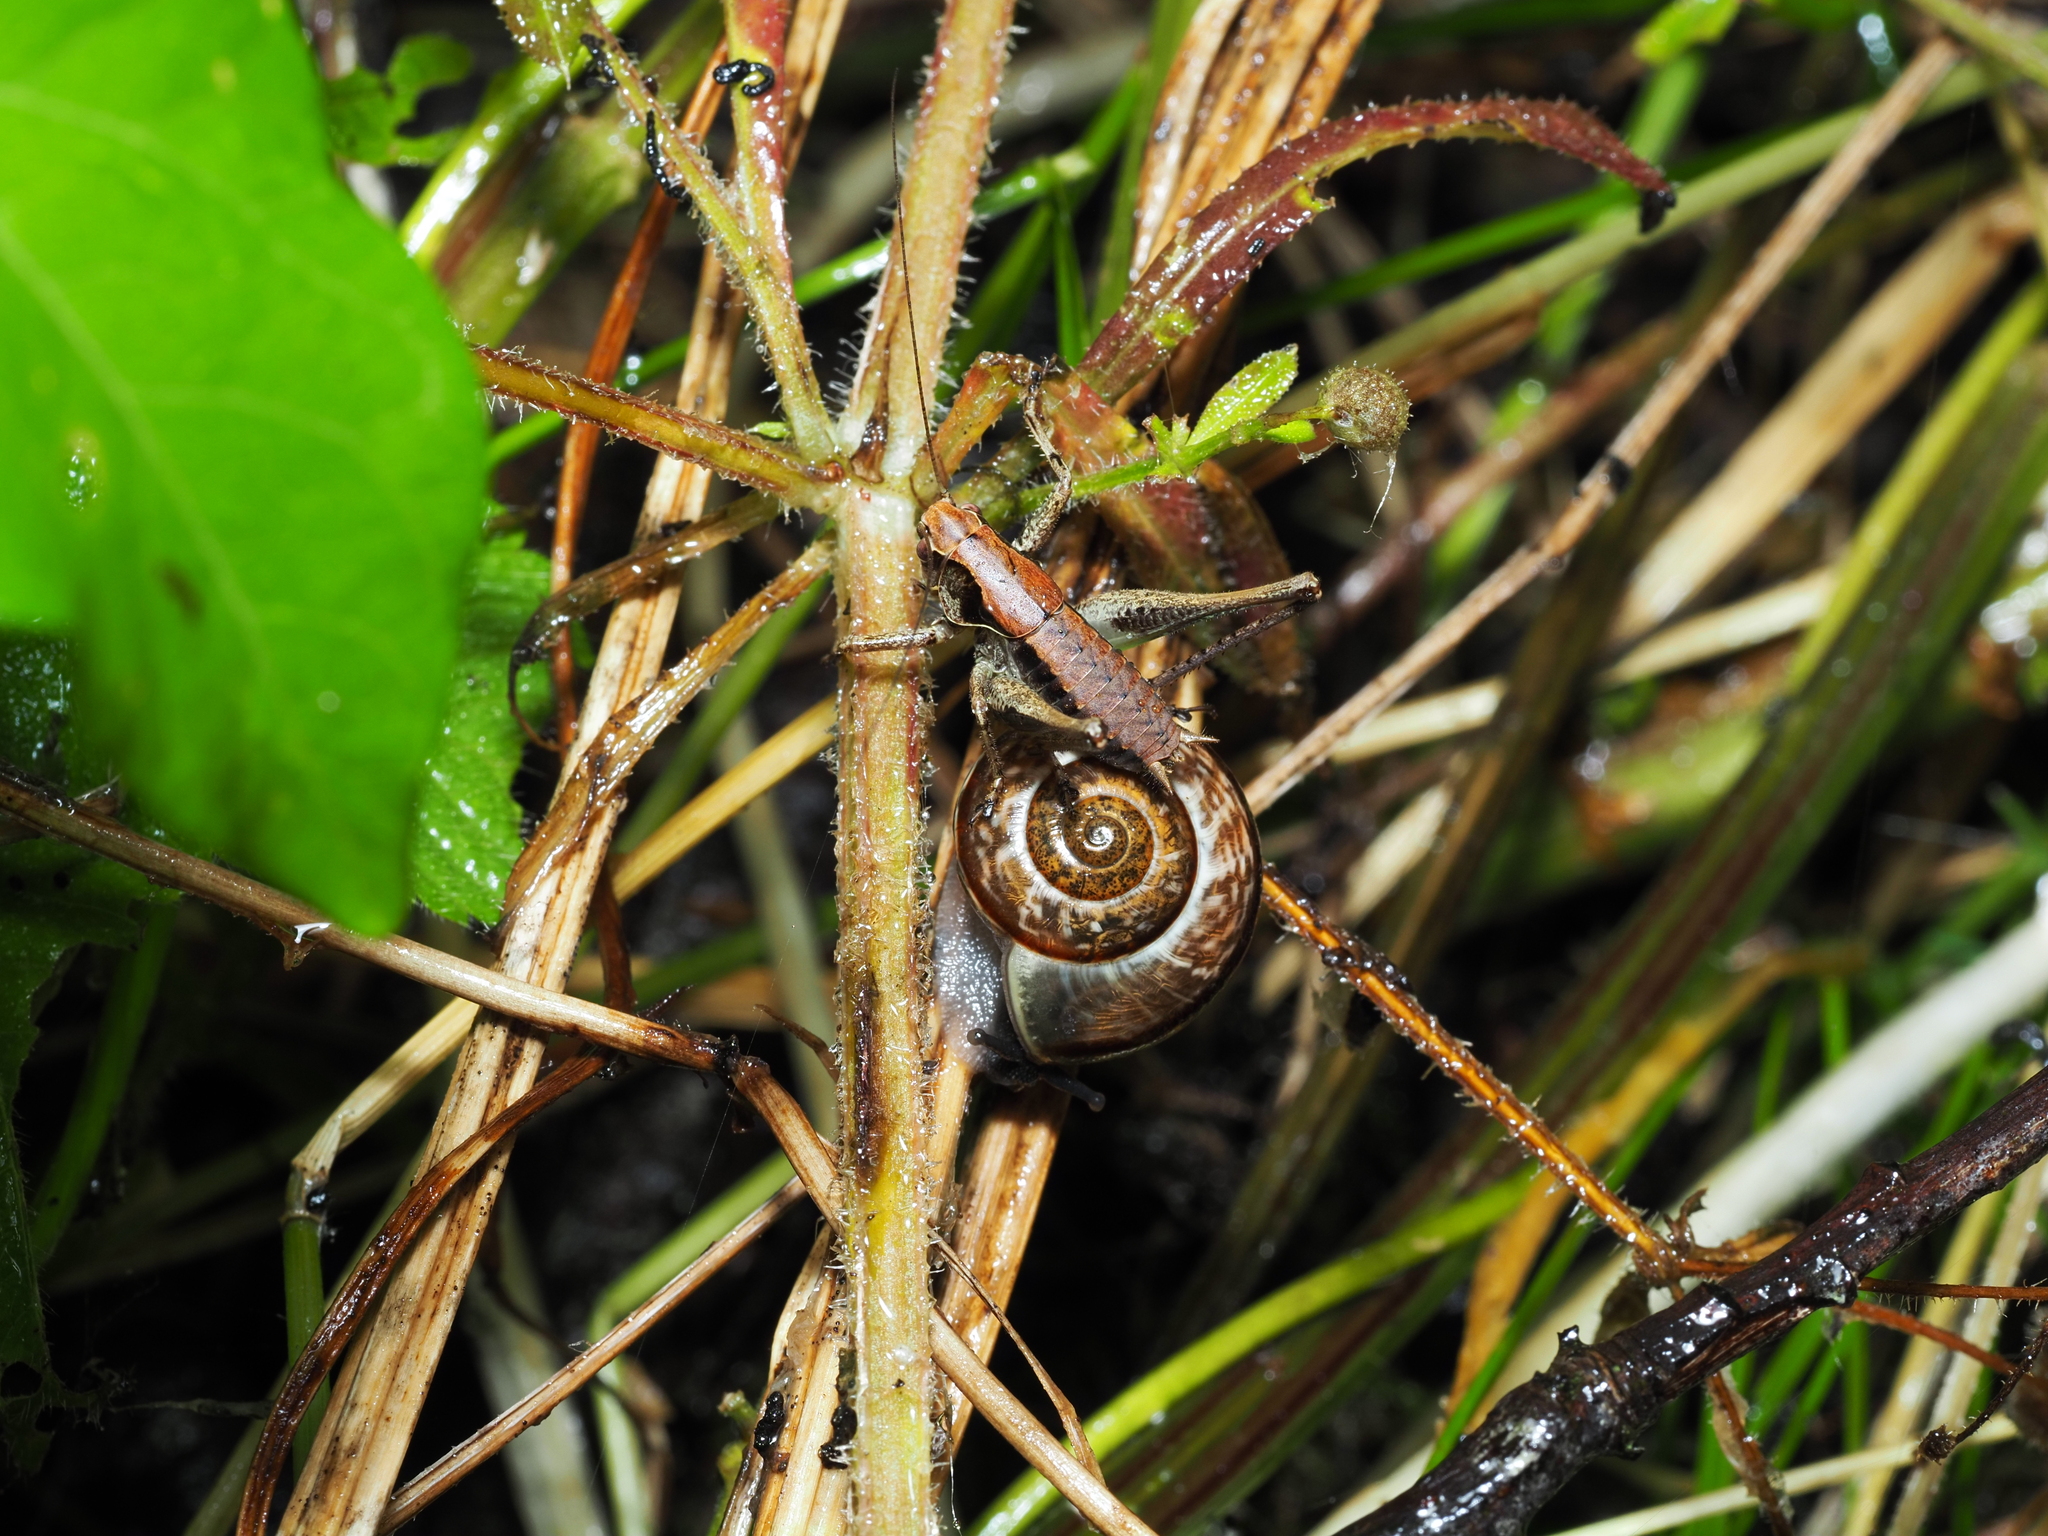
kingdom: Animalia
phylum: Arthropoda
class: Insecta
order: Orthoptera
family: Tettigoniidae
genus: Pholidoptera
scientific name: Pholidoptera griseoaptera
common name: Dark bush-cricket
